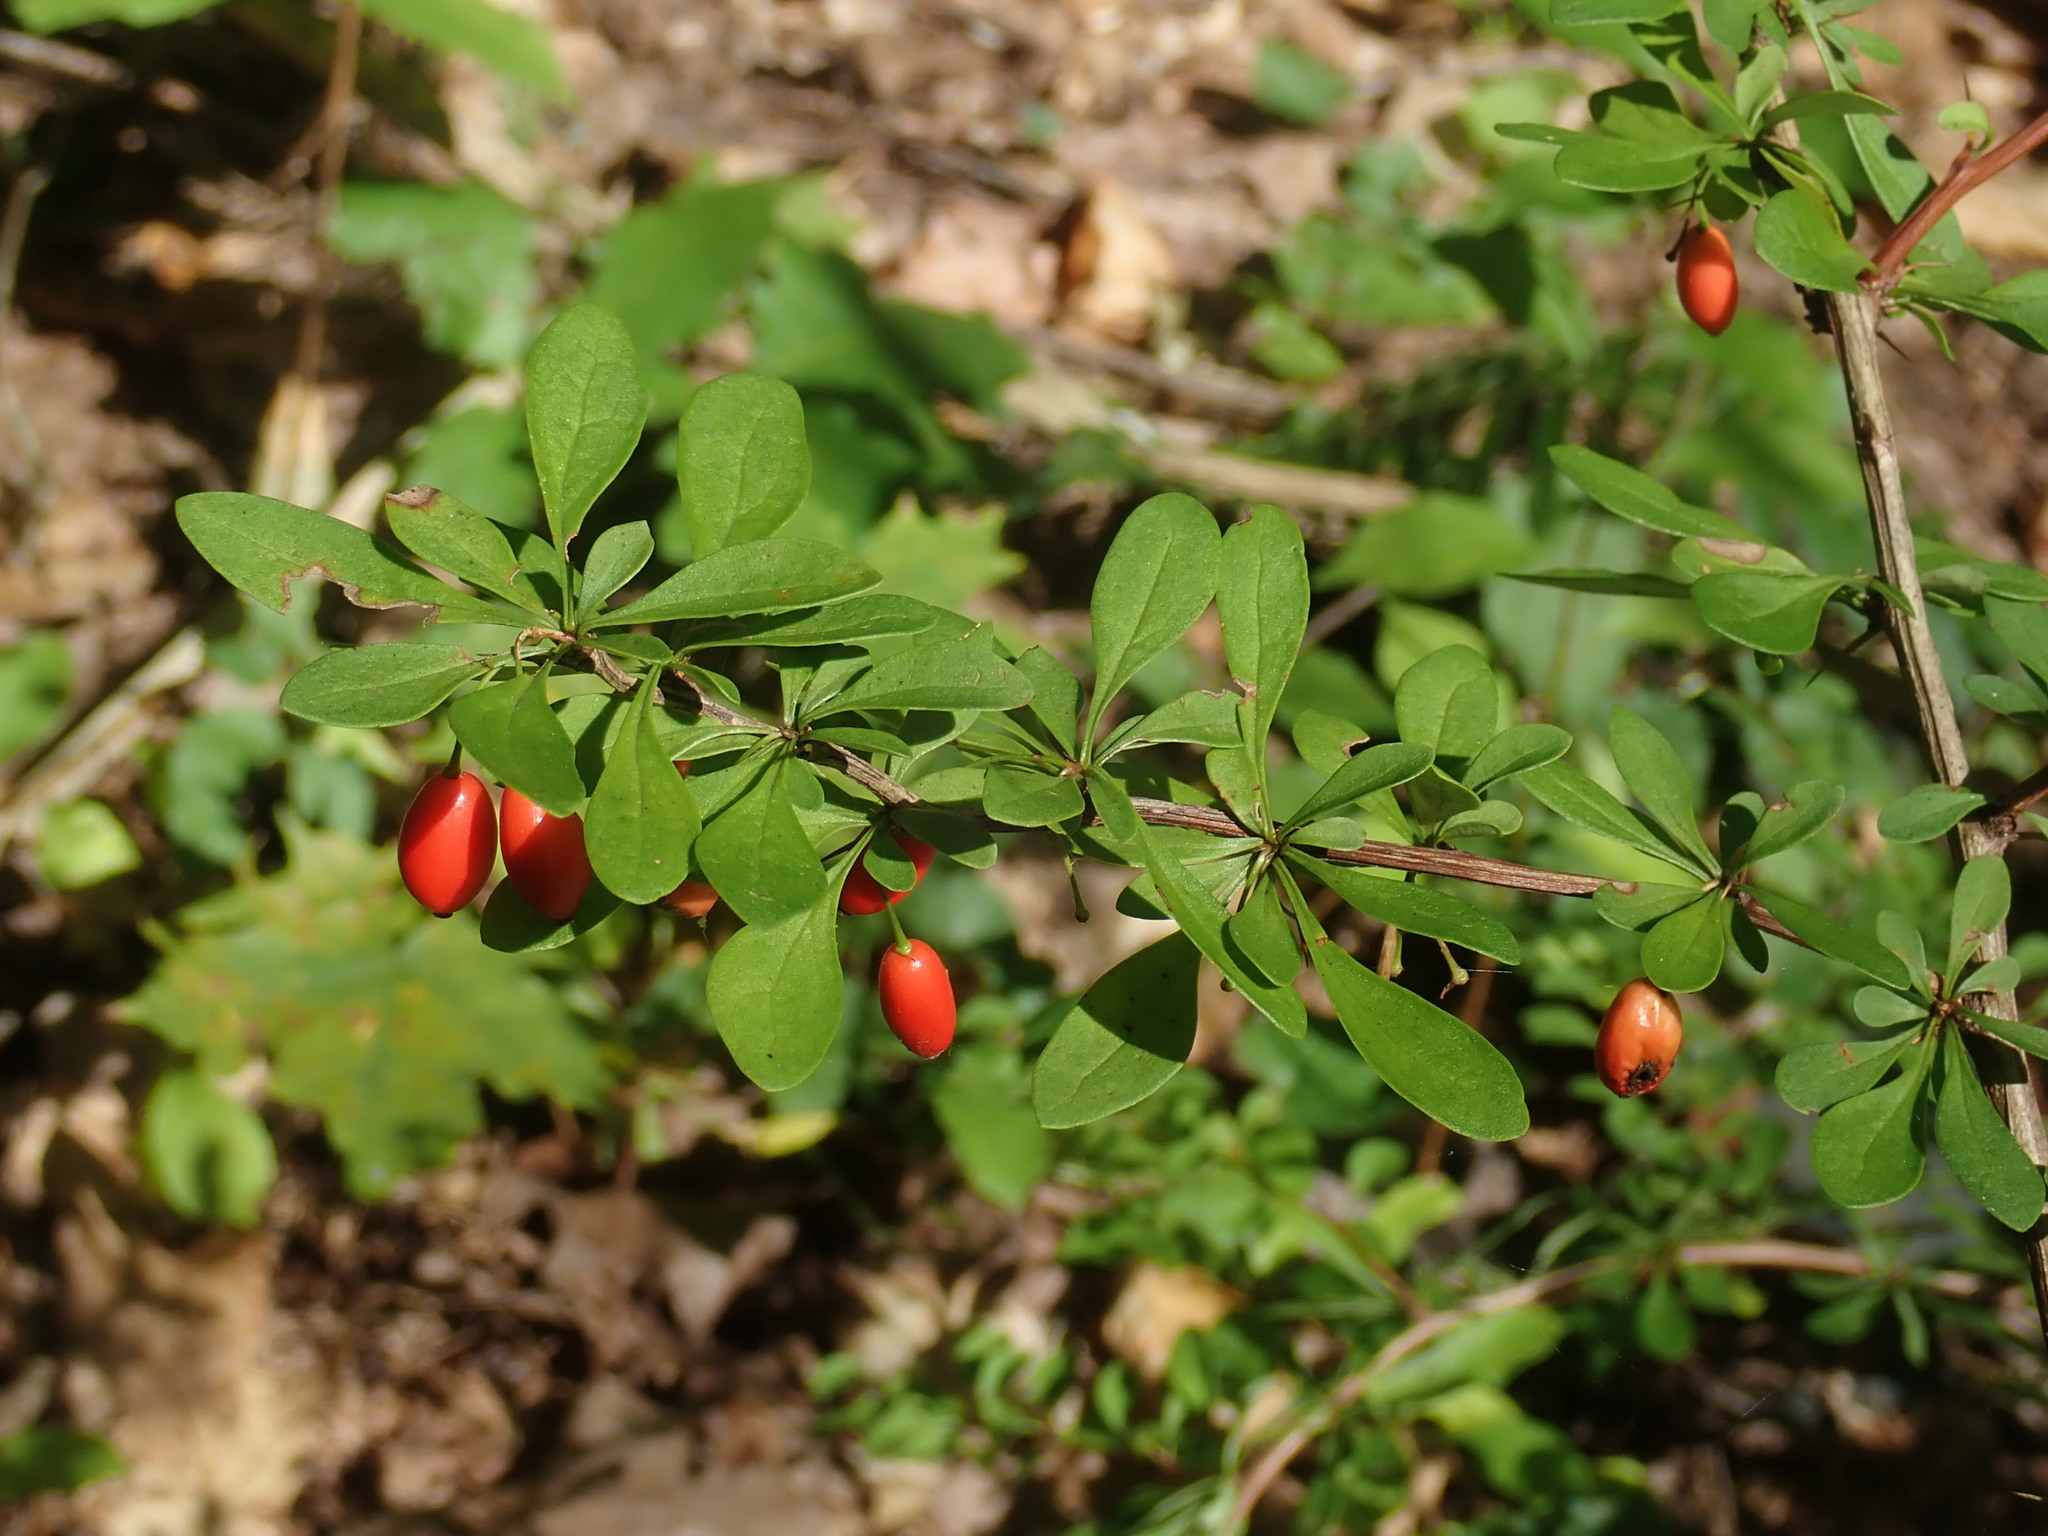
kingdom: Plantae
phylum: Tracheophyta
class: Magnoliopsida
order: Ranunculales
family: Berberidaceae
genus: Berberis
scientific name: Berberis thunbergii
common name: Japanese barberry
